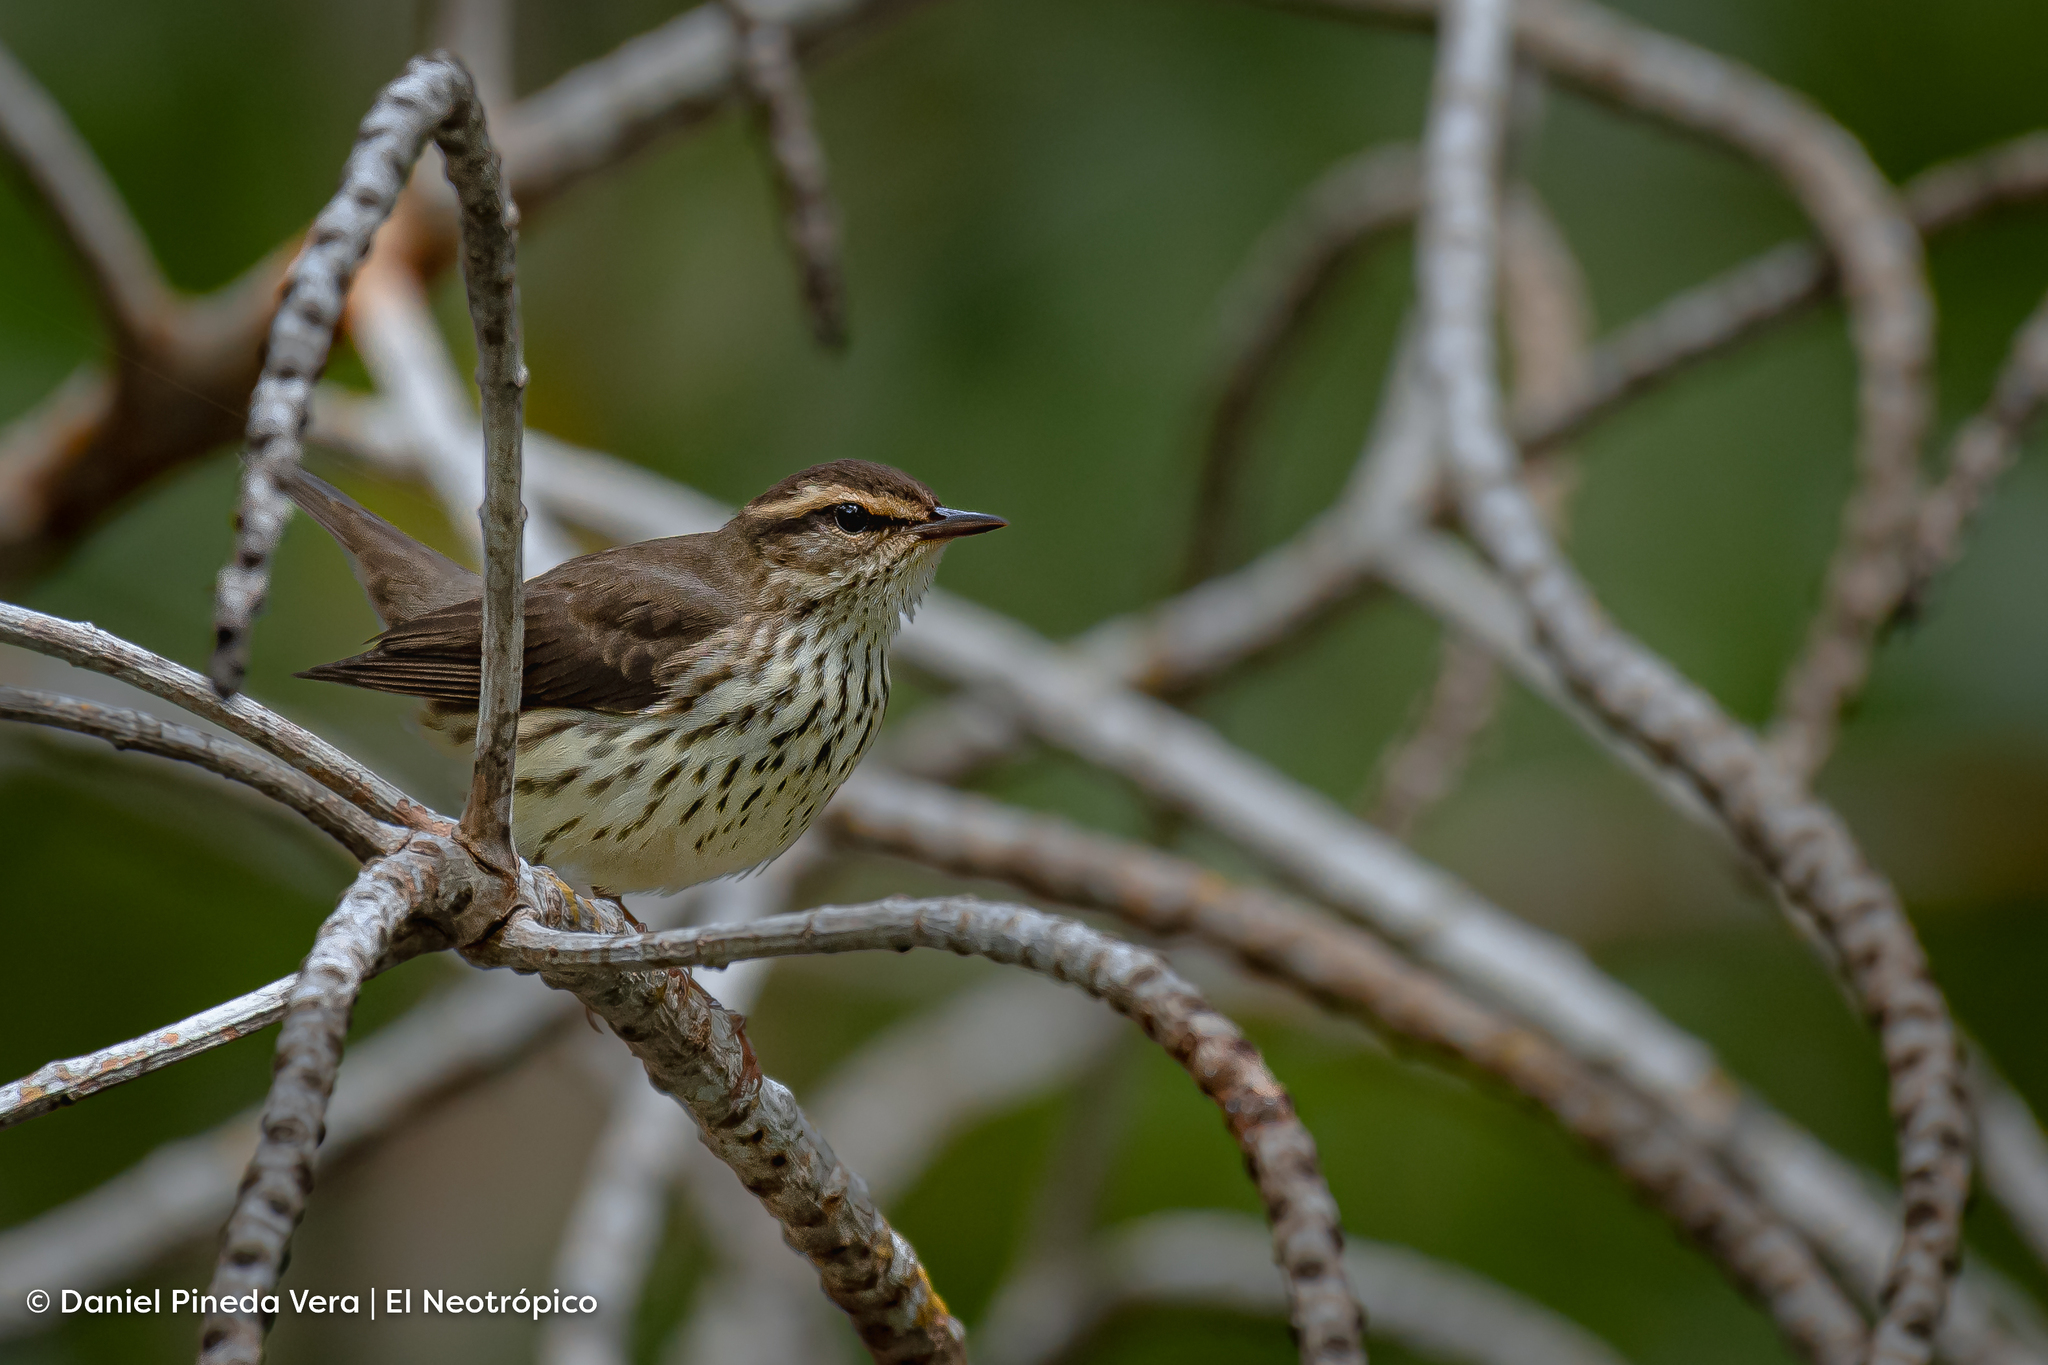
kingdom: Animalia
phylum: Chordata
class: Aves
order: Passeriformes
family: Parulidae
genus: Parkesia
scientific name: Parkesia noveboracensis
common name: Northern waterthrush
